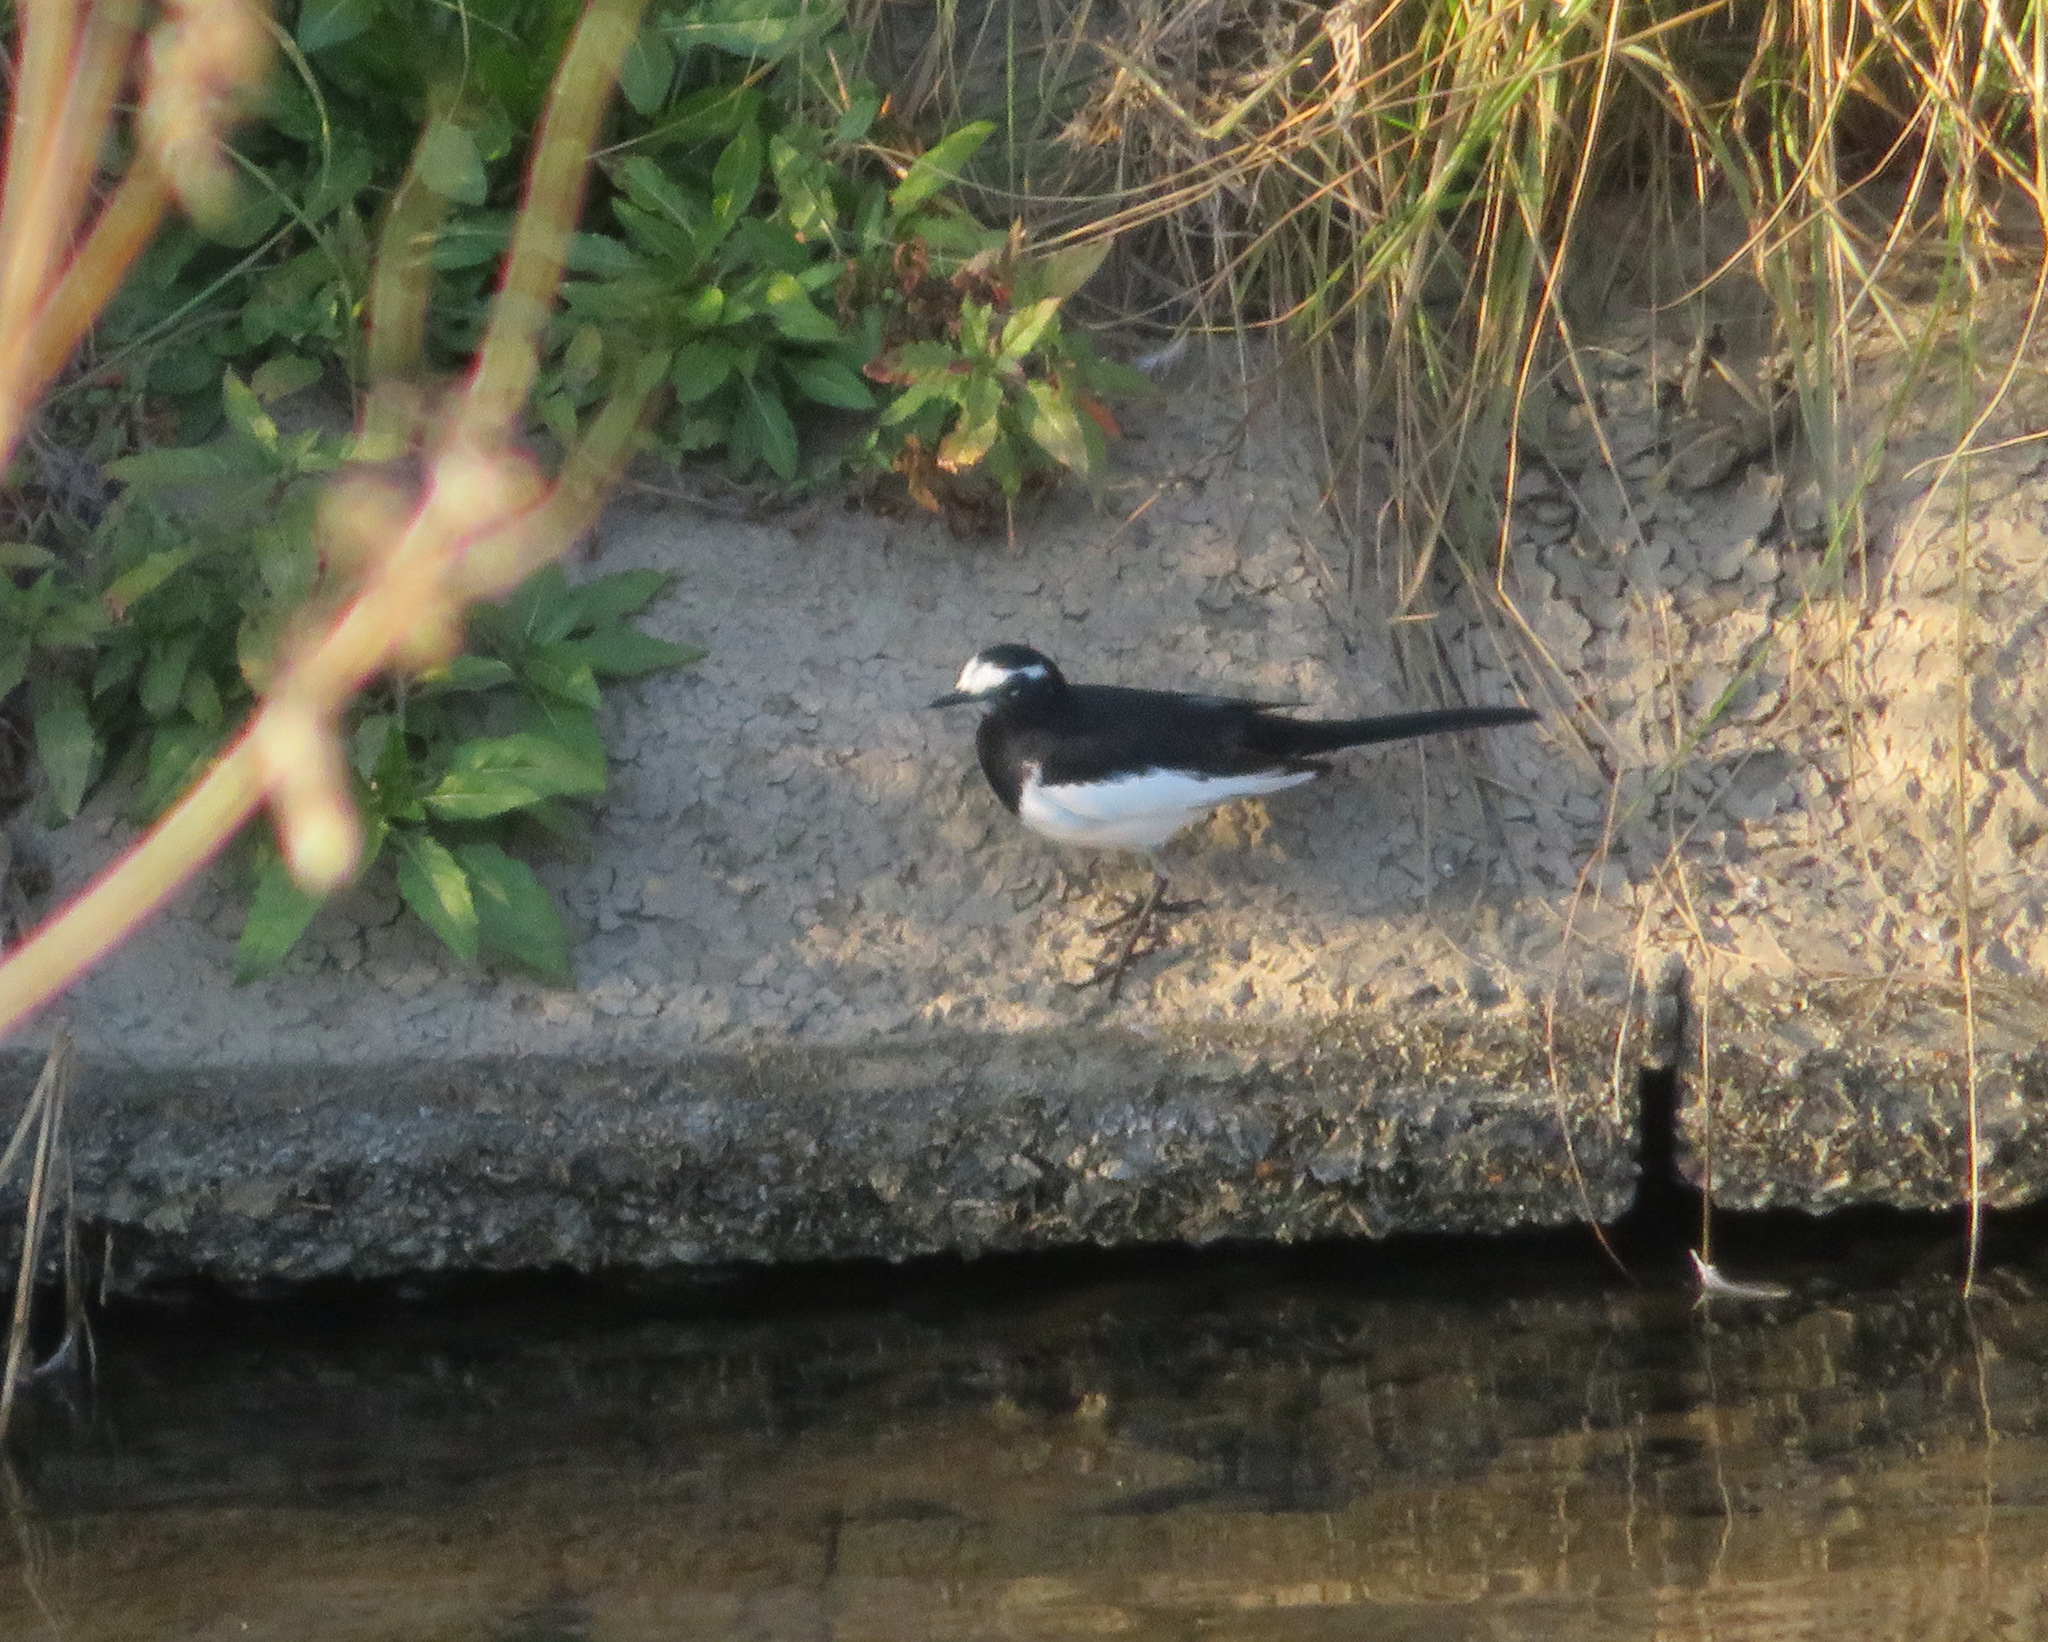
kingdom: Animalia
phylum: Chordata
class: Aves
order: Passeriformes
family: Motacillidae
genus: Motacilla
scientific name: Motacilla grandis
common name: Japanese wagtail
